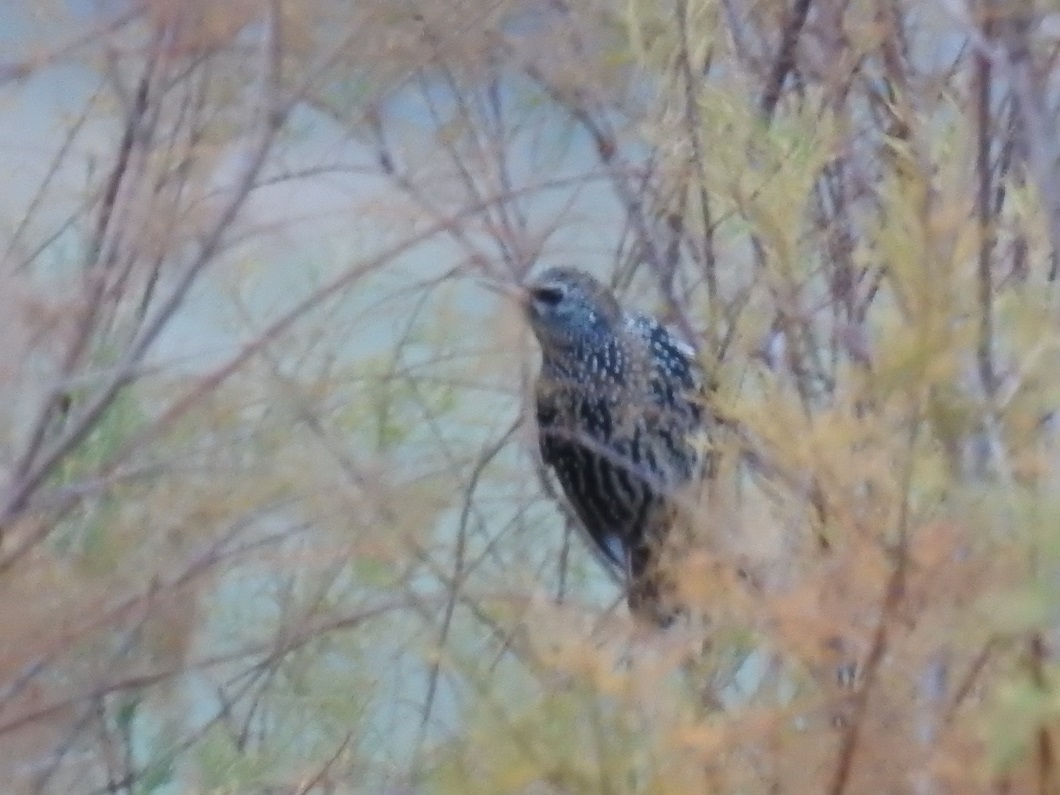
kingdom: Animalia
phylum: Chordata
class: Aves
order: Passeriformes
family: Sturnidae
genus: Sturnus
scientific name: Sturnus vulgaris
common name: Common starling
